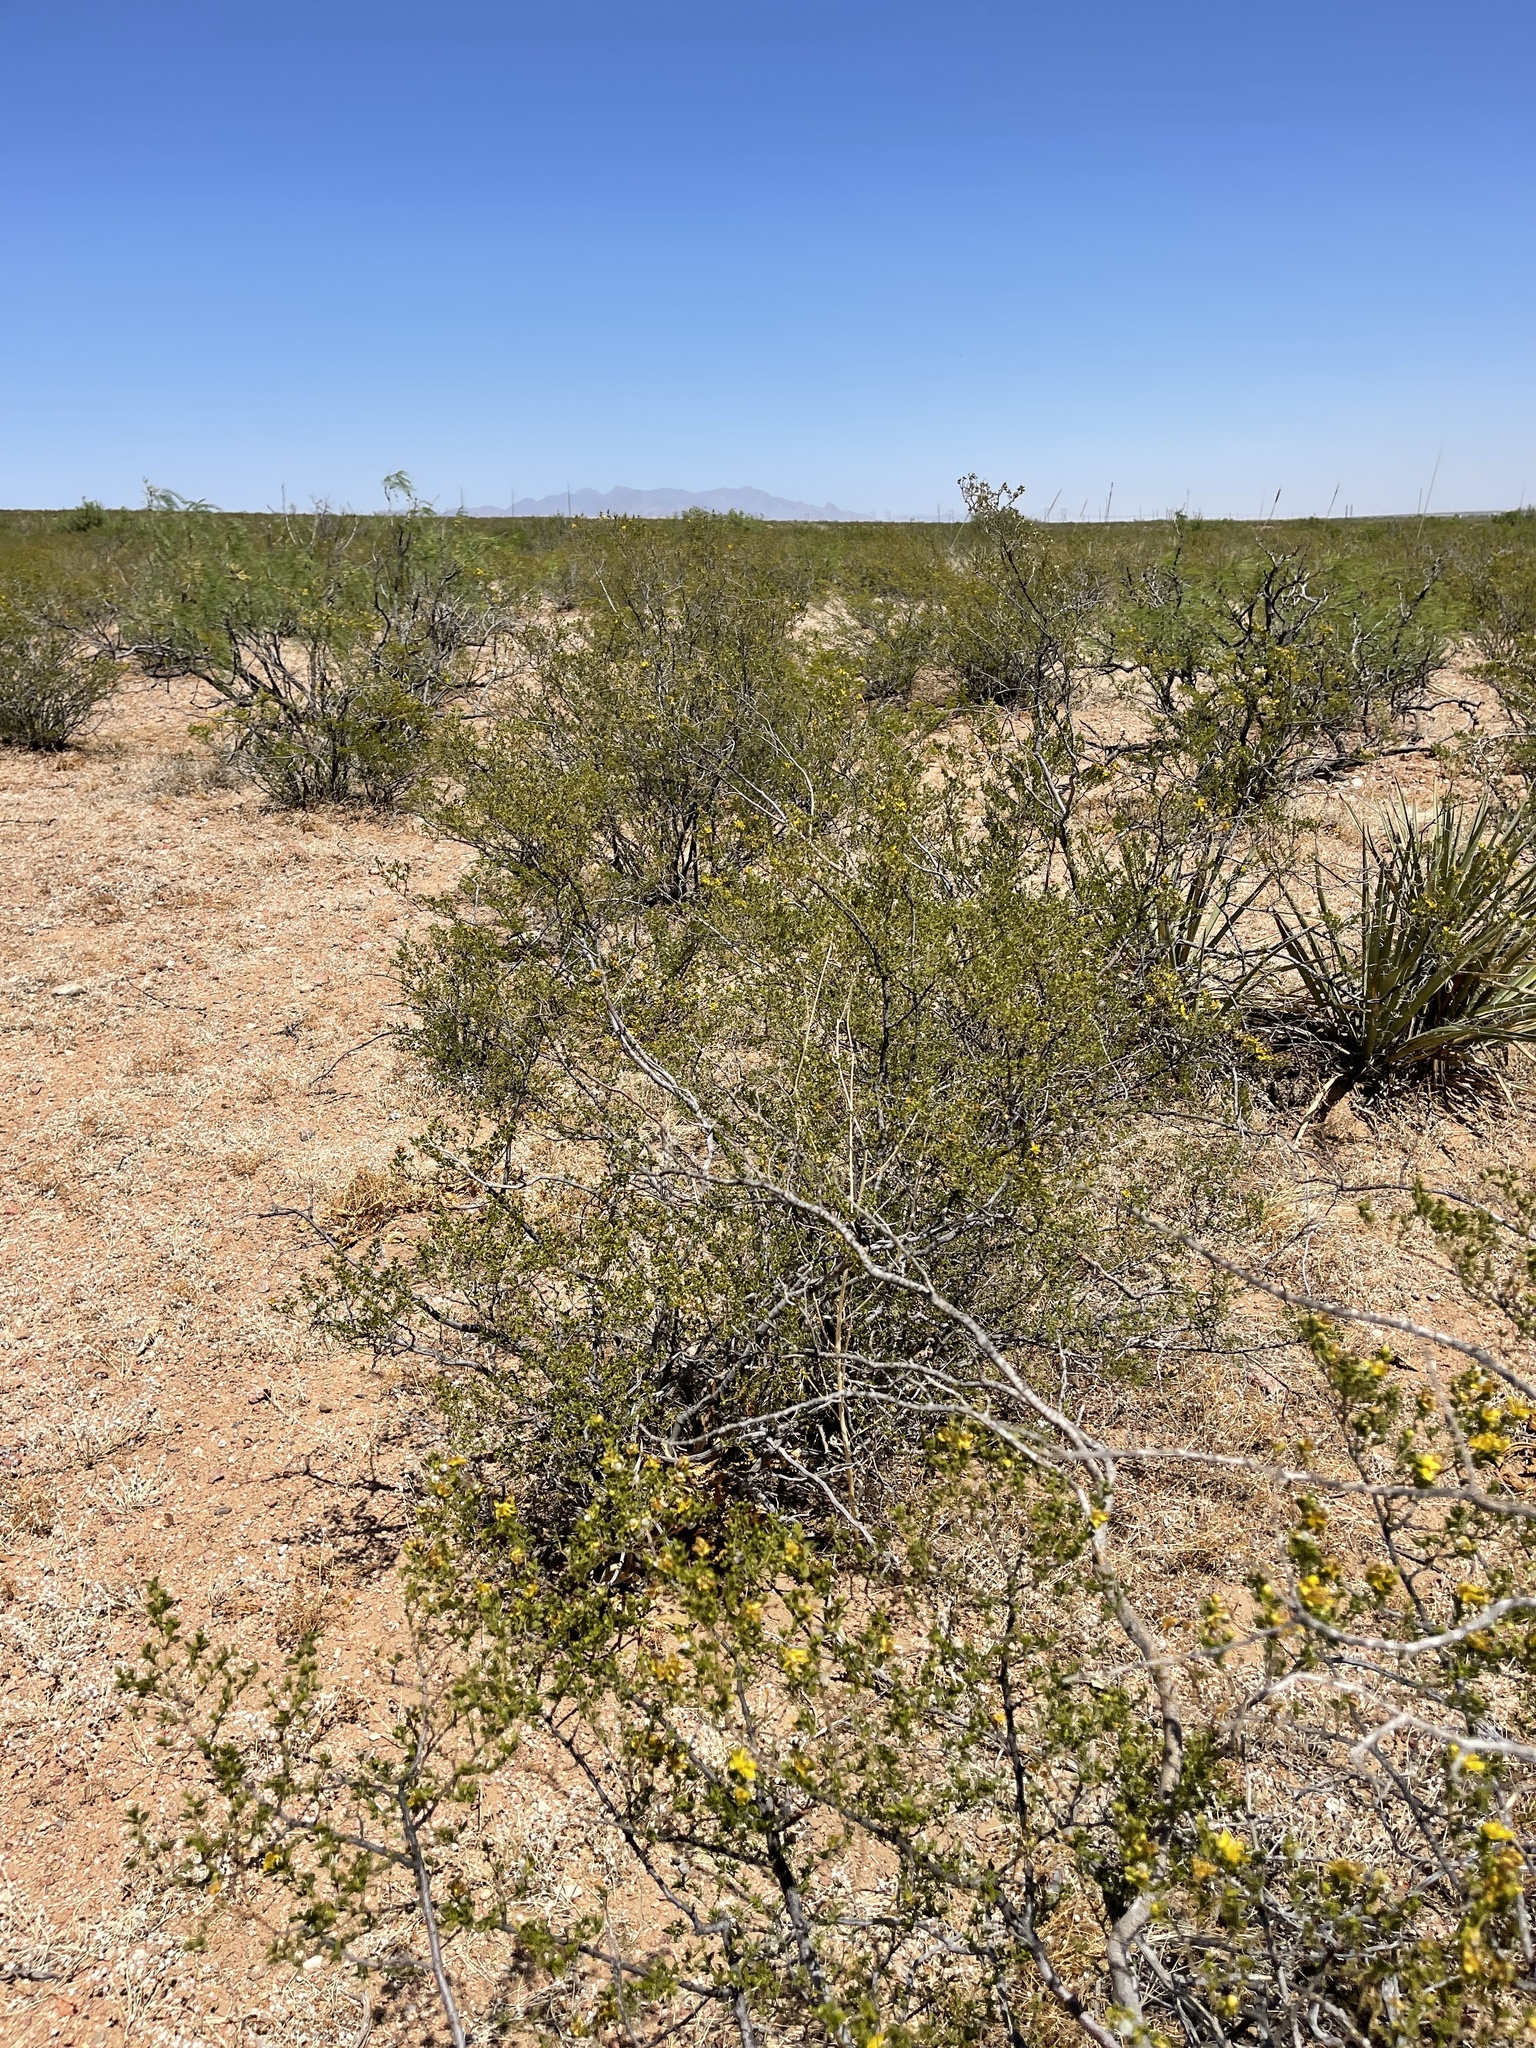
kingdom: Plantae
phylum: Tracheophyta
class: Magnoliopsida
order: Zygophyllales
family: Zygophyllaceae
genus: Larrea
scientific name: Larrea tridentata
